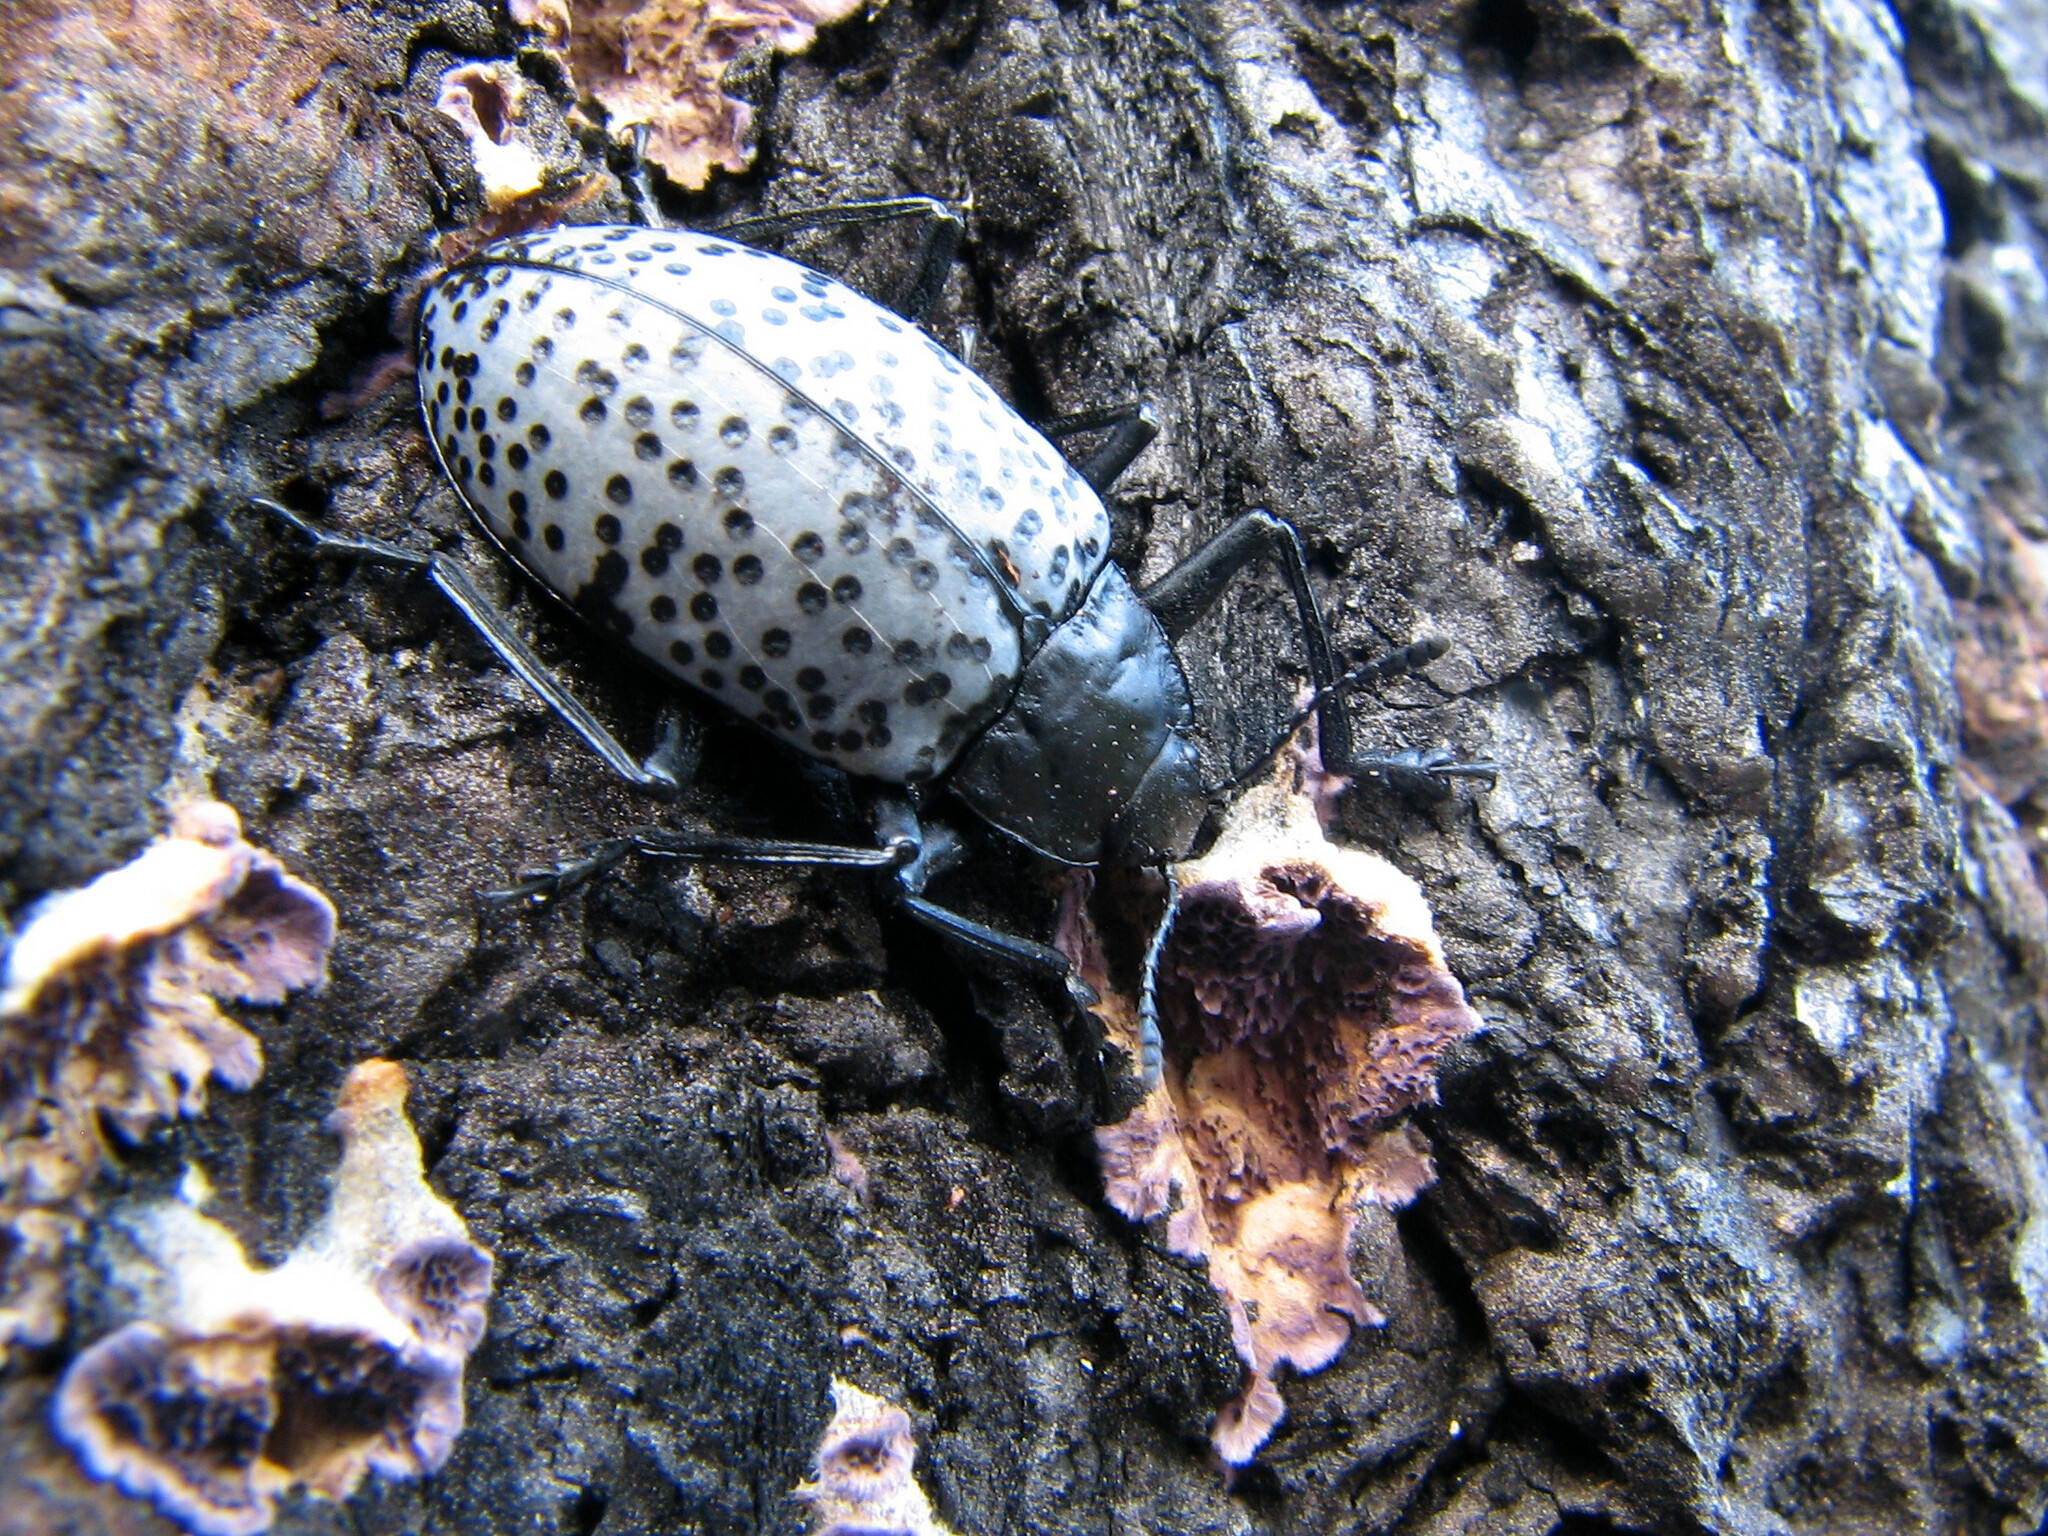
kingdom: Animalia
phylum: Arthropoda
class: Insecta
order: Coleoptera
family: Erotylidae
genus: Gibbifer
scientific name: Gibbifer californicus
